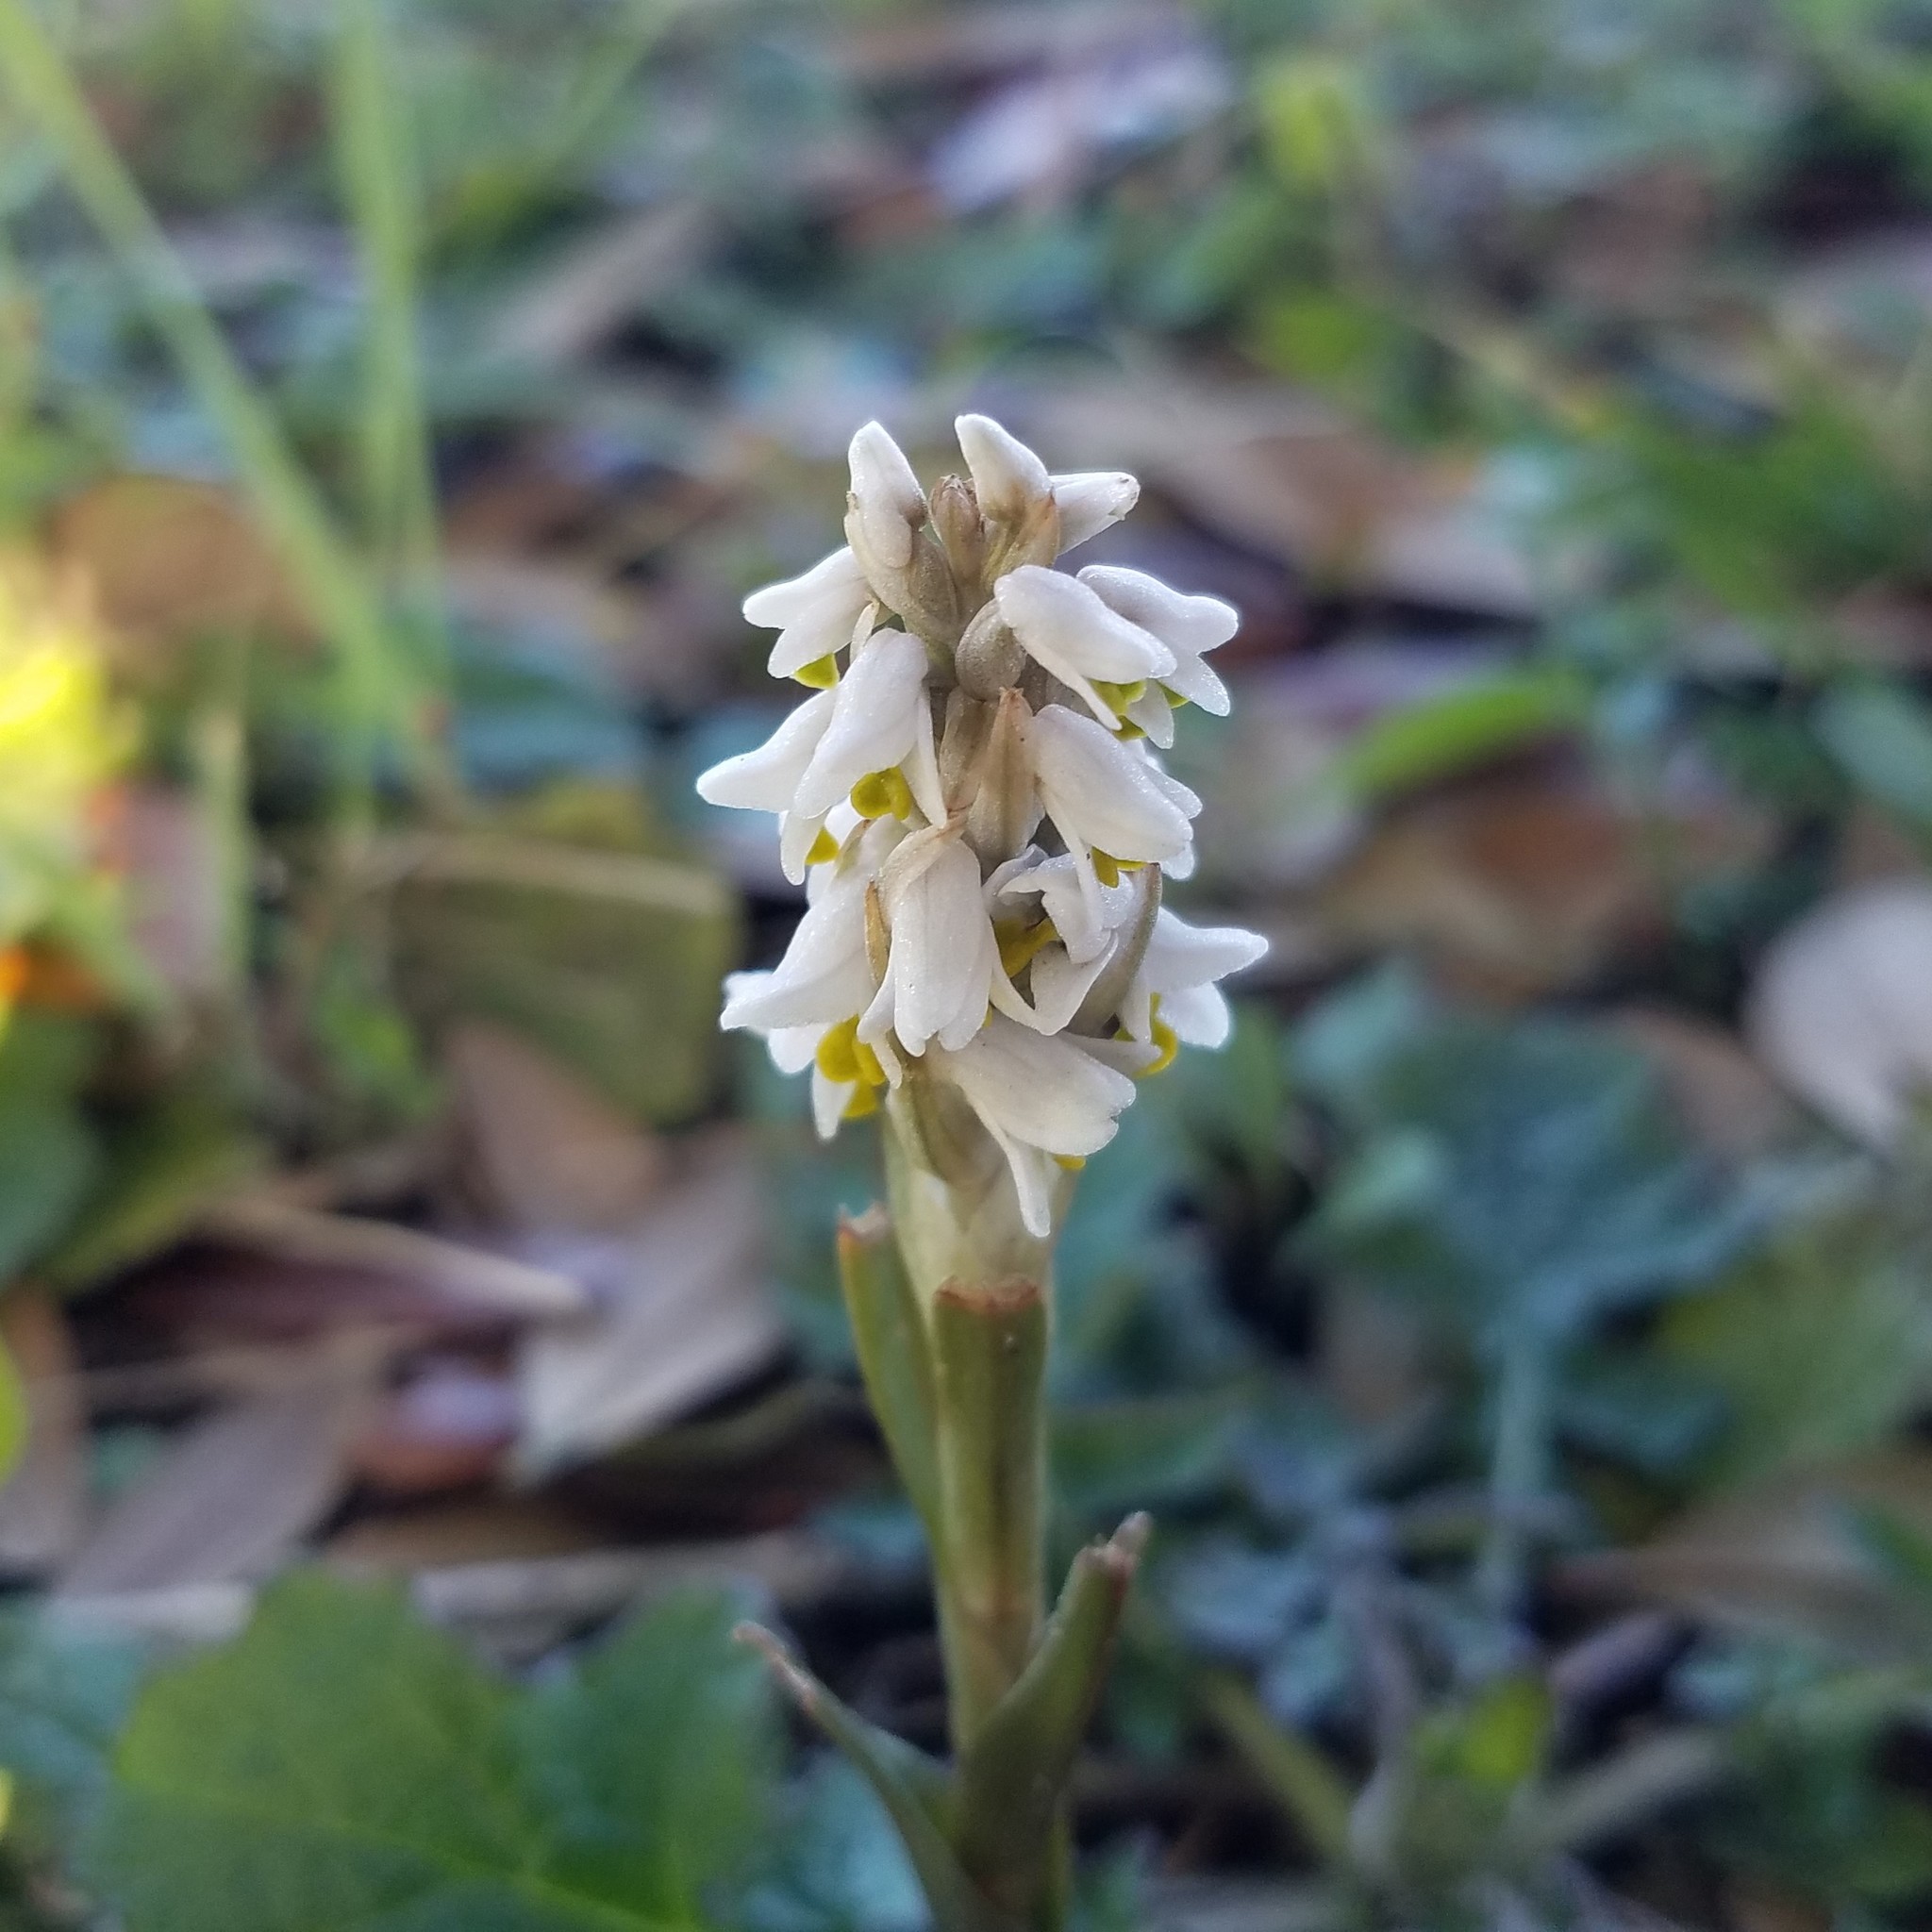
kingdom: Plantae
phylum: Tracheophyta
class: Liliopsida
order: Asparagales
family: Orchidaceae
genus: Zeuxine
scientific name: Zeuxine strateumatica
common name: Soldier's orchid
